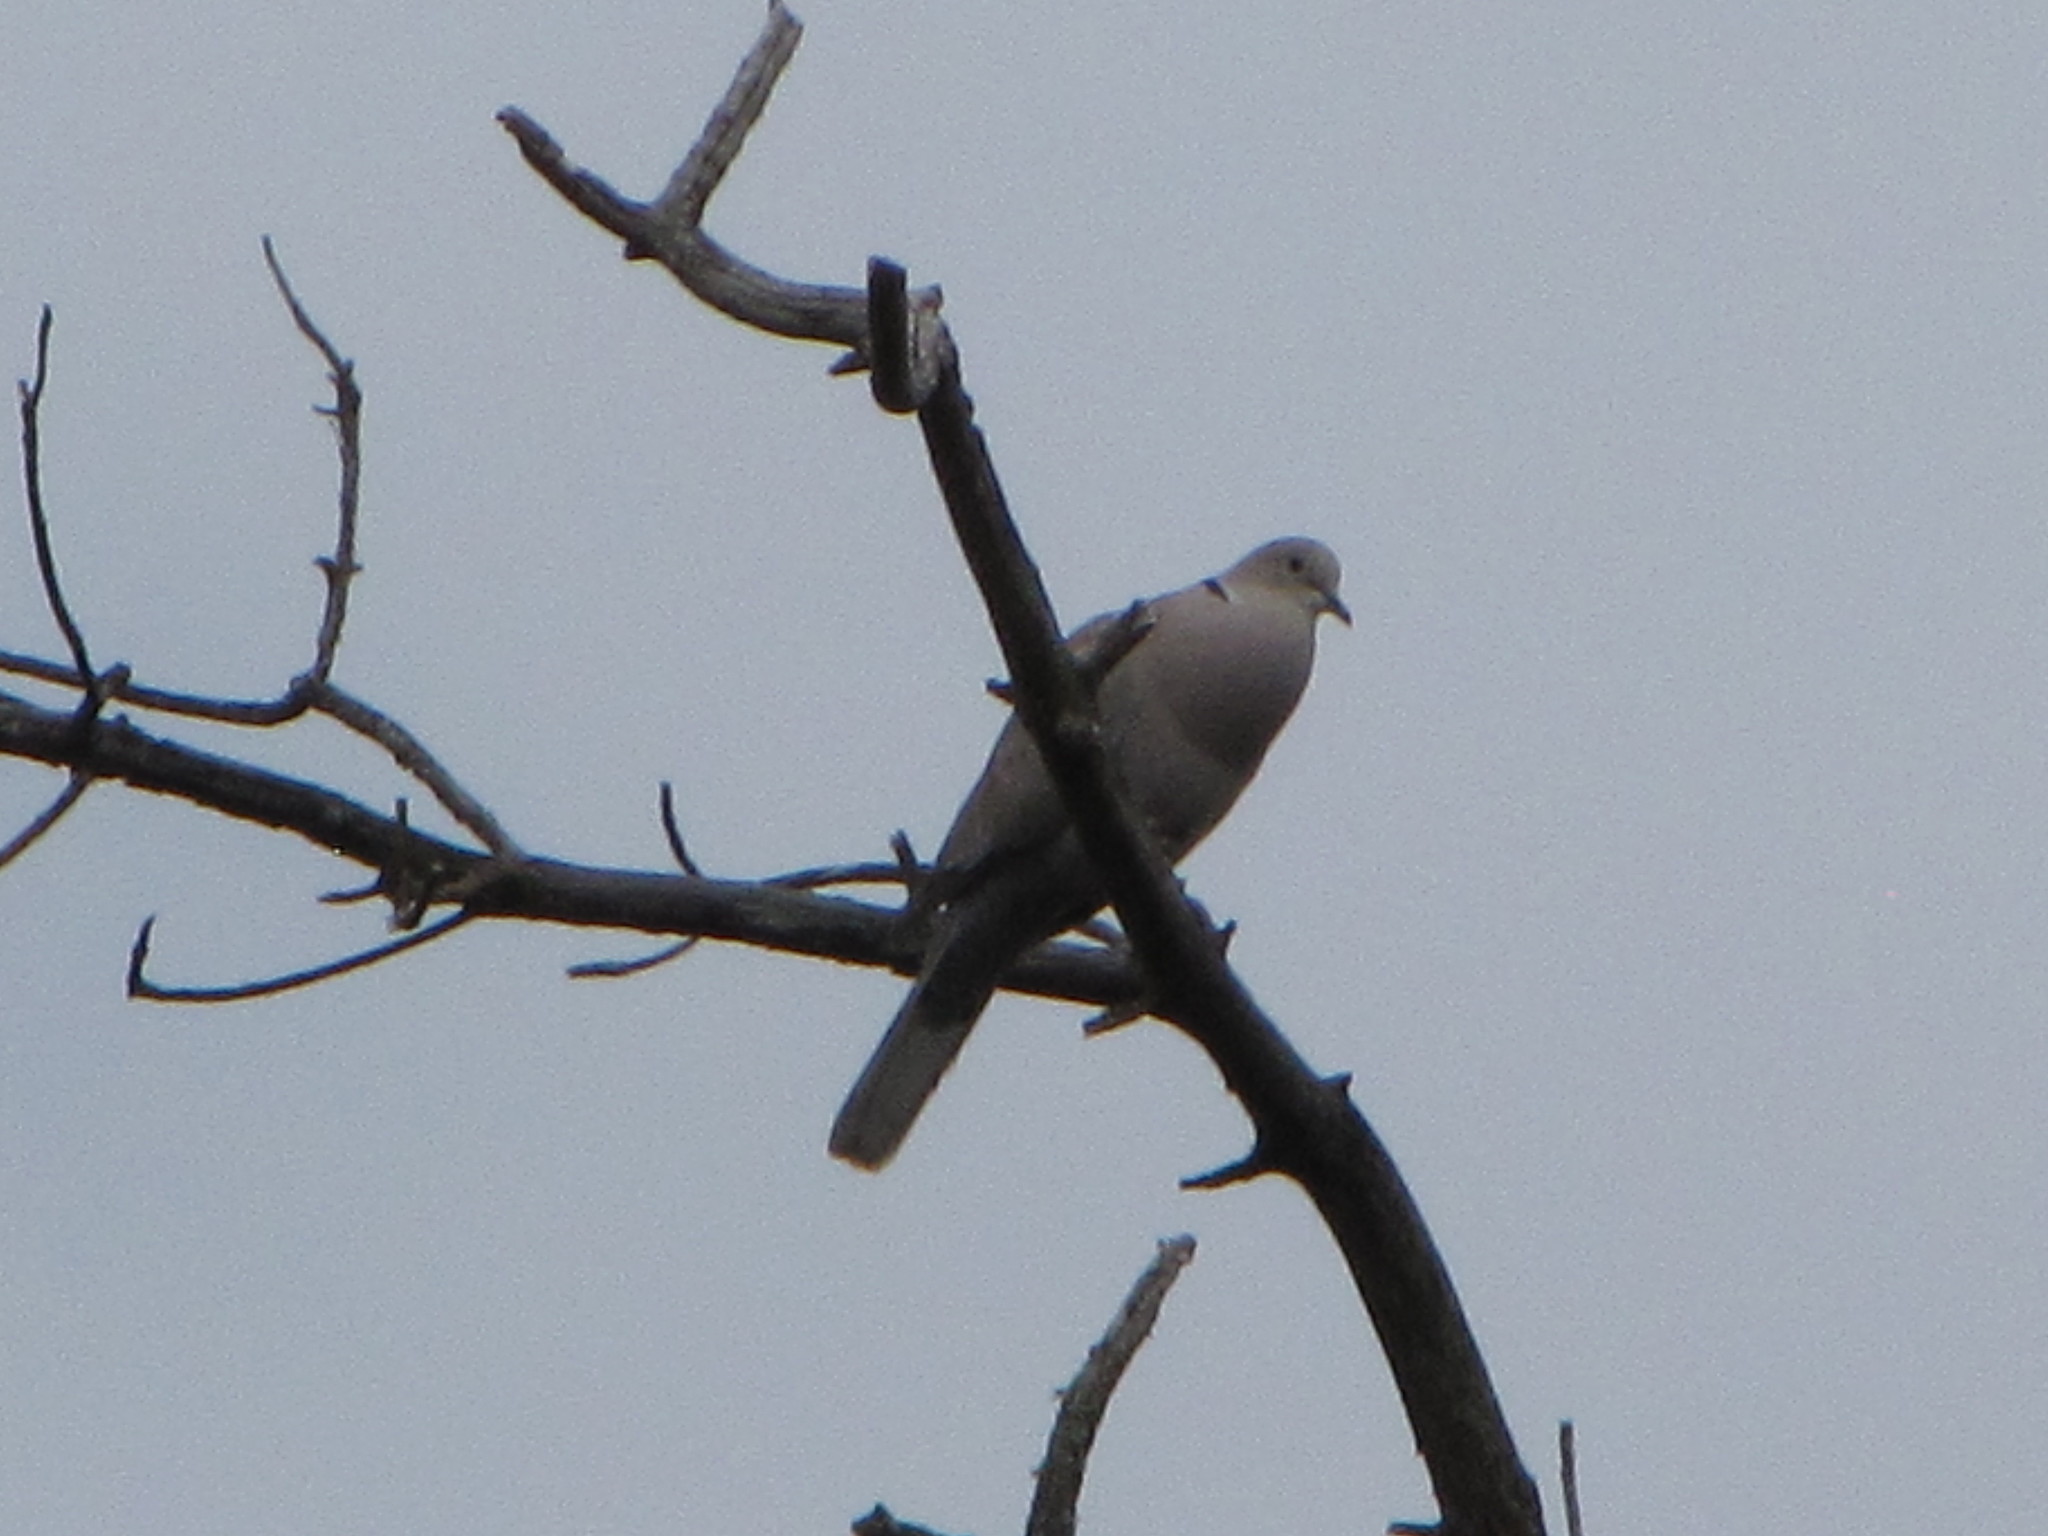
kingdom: Animalia
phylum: Chordata
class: Aves
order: Columbiformes
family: Columbidae
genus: Streptopelia
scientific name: Streptopelia decaocto
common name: Eurasian collared dove
